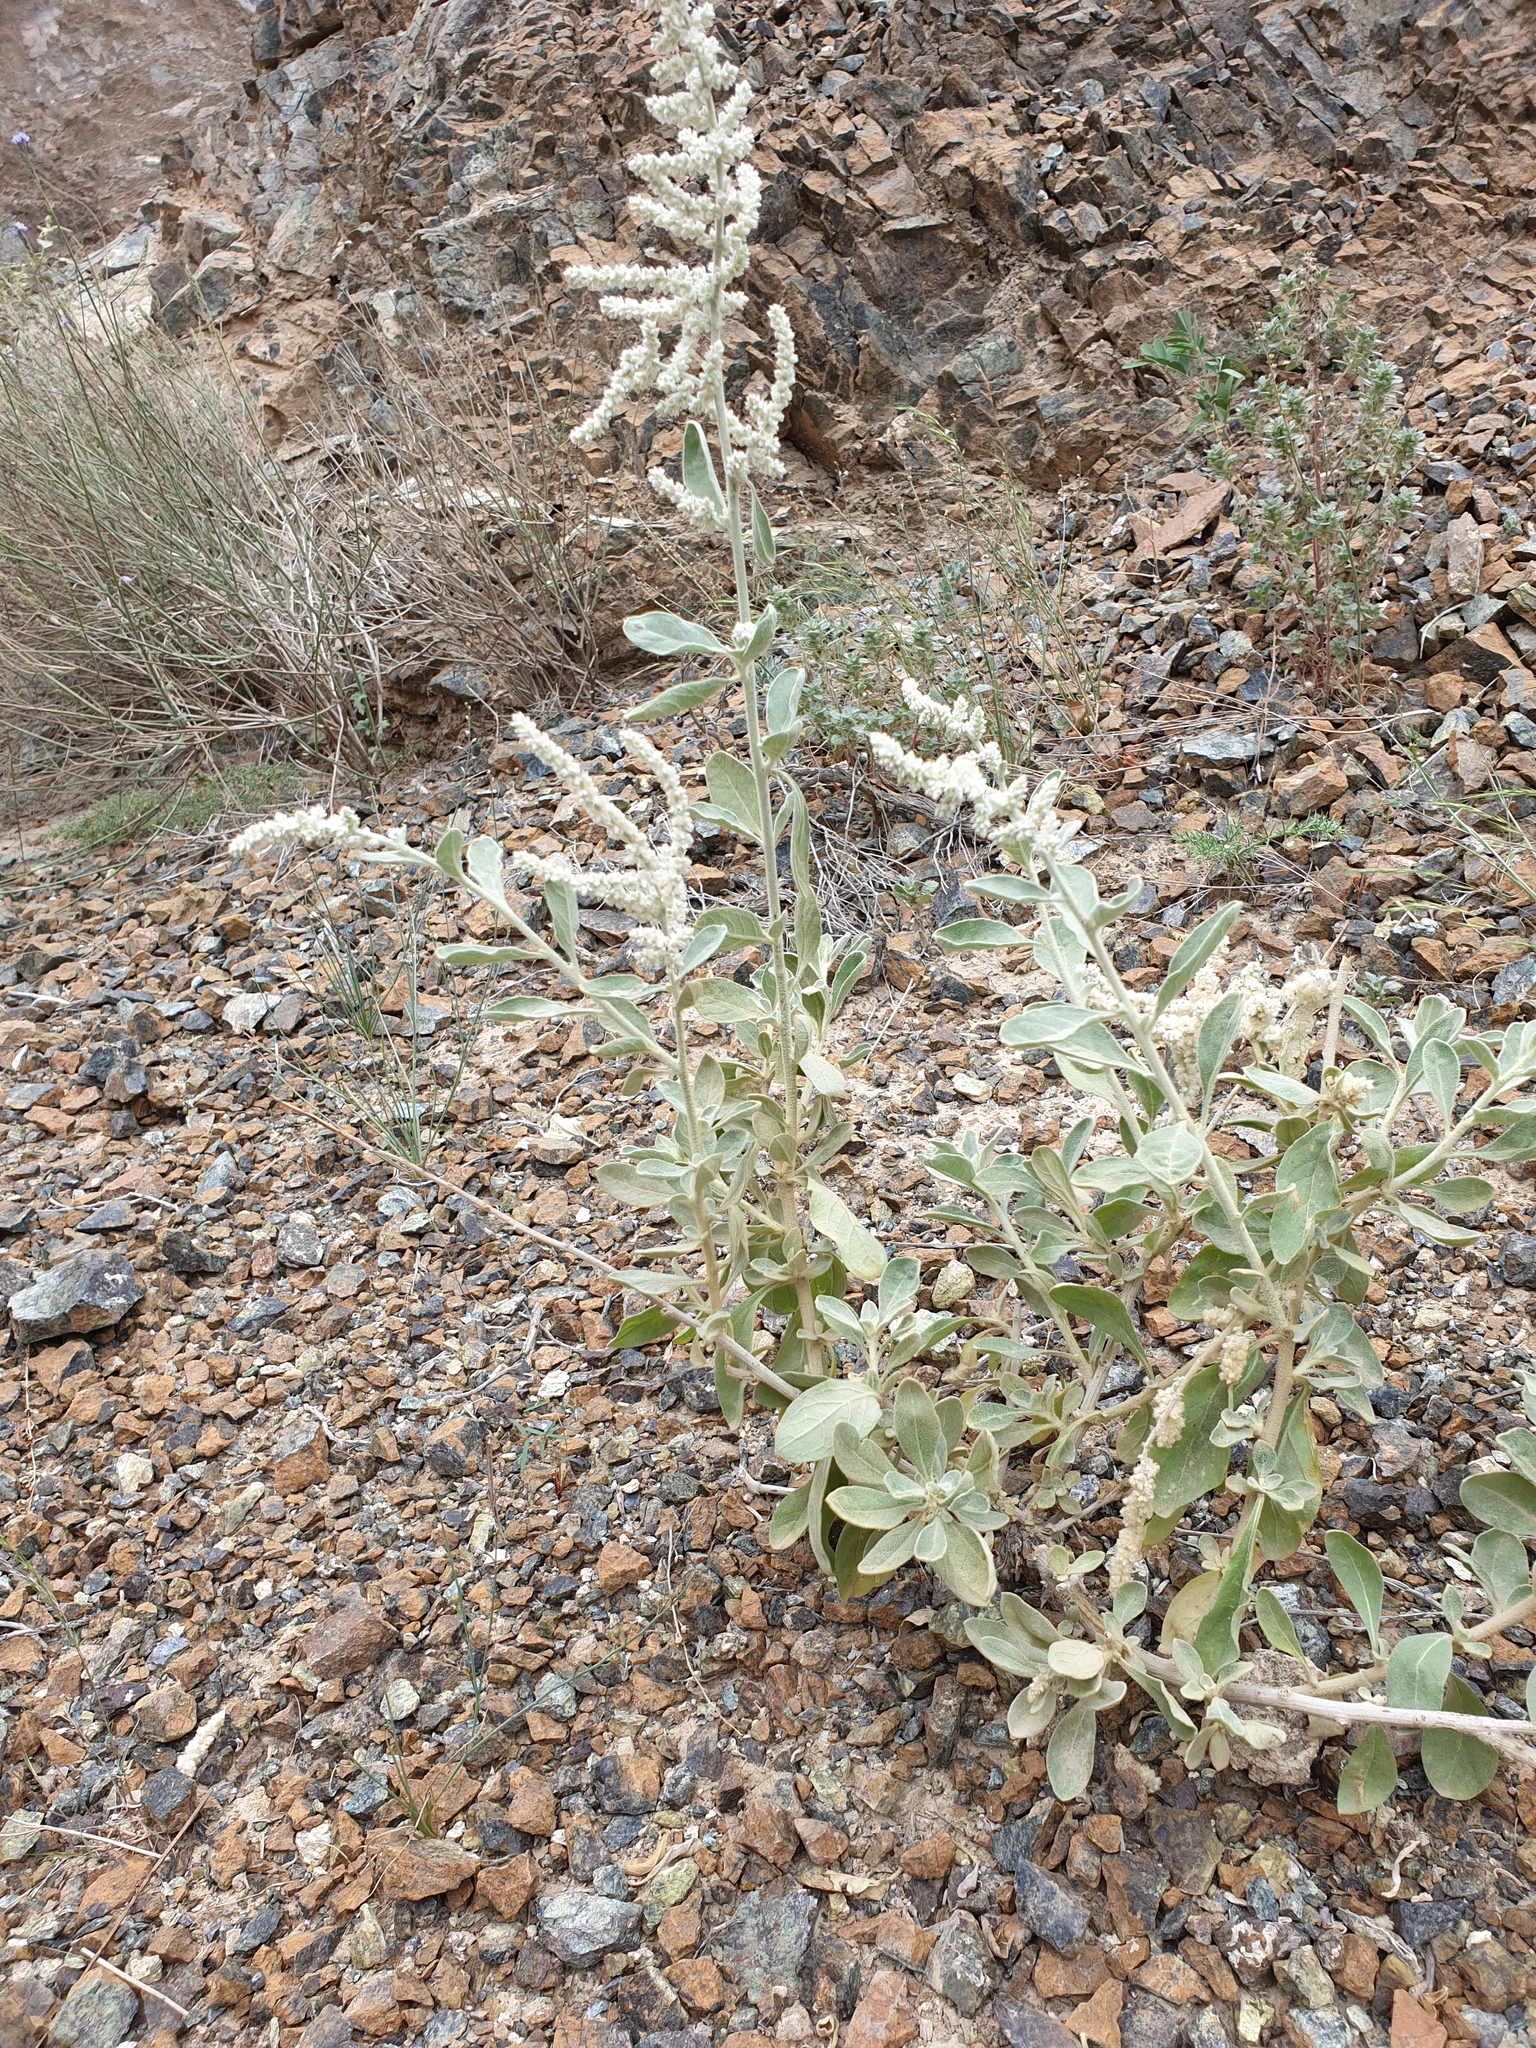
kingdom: Plantae
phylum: Tracheophyta
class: Magnoliopsida
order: Caryophyllales
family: Amaranthaceae
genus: Aerva
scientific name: Aerva javanica
